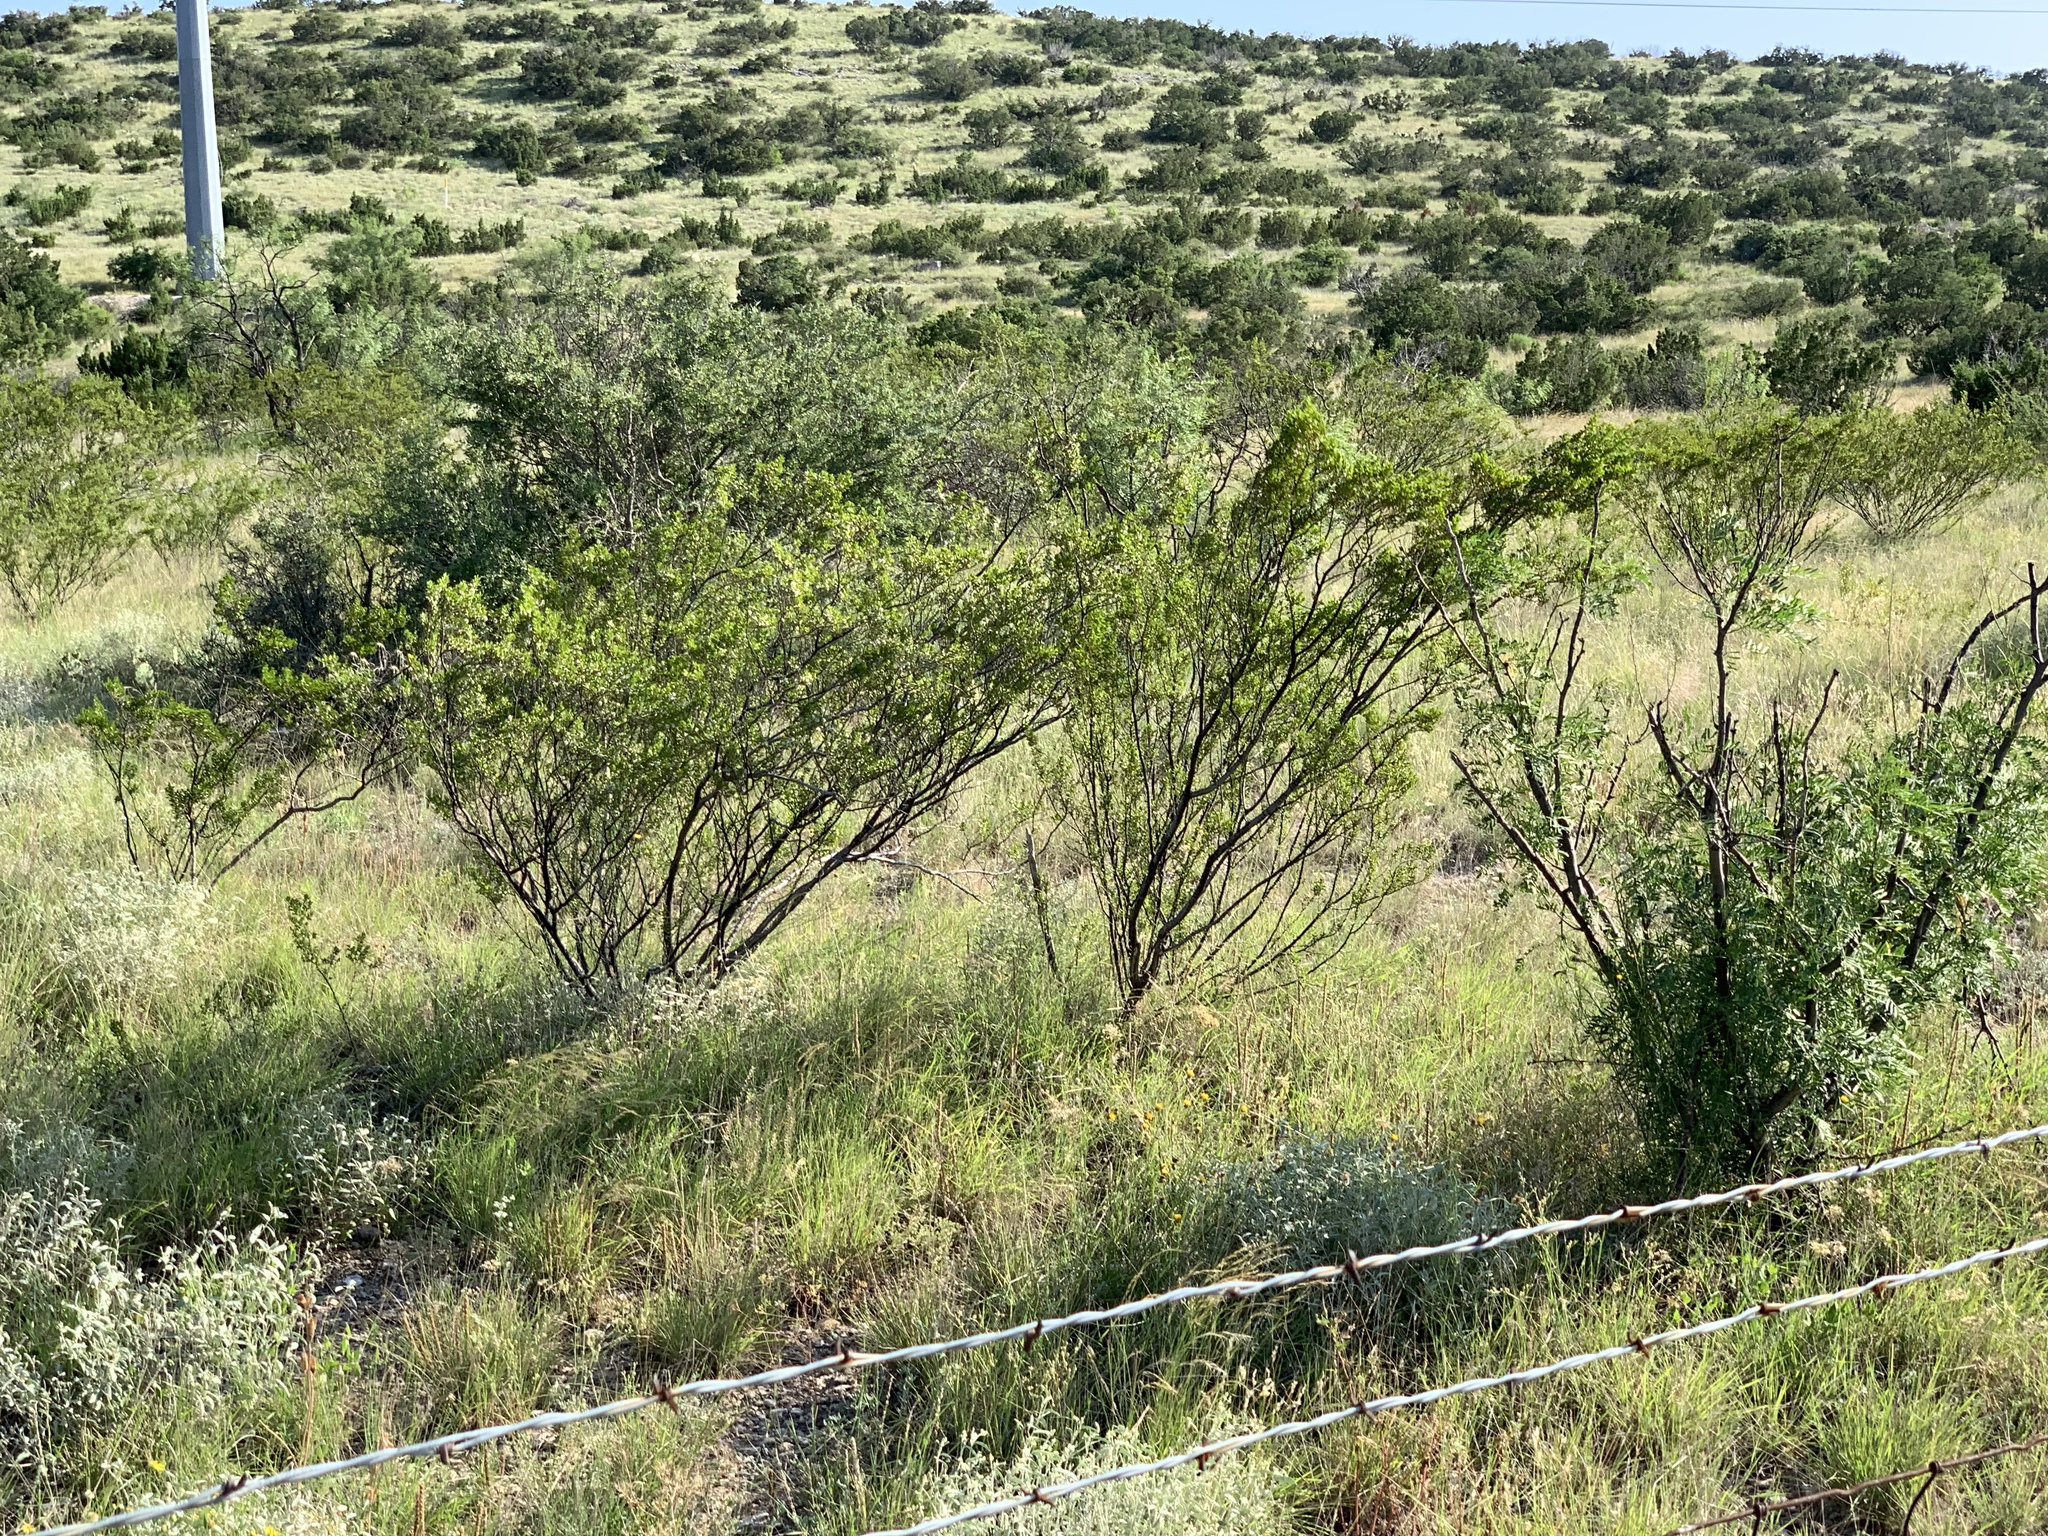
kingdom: Plantae
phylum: Tracheophyta
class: Magnoliopsida
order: Zygophyllales
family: Zygophyllaceae
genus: Larrea
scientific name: Larrea tridentata
